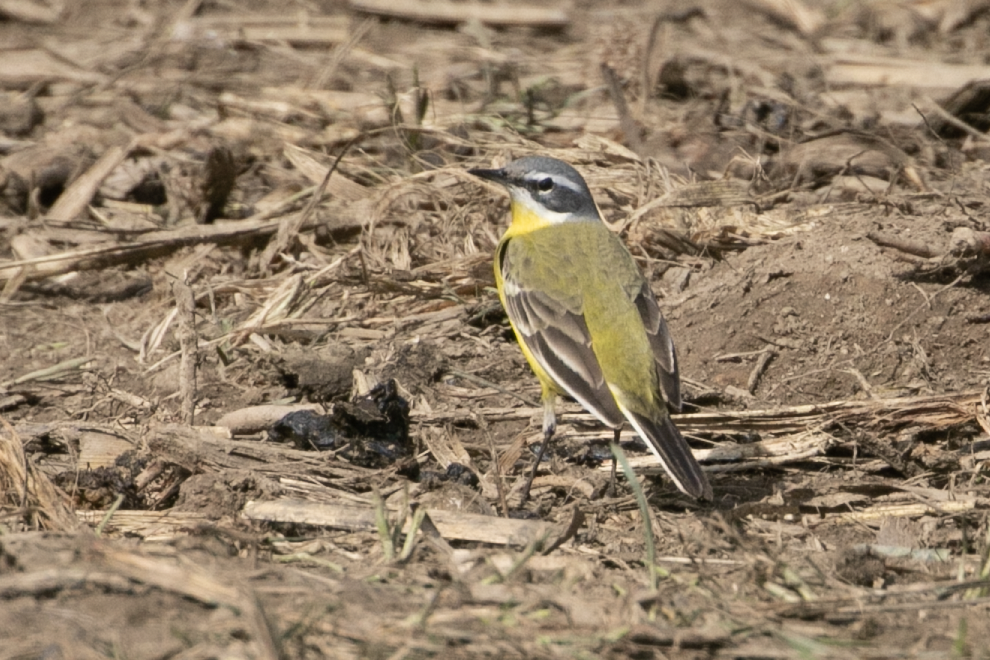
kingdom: Animalia
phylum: Chordata
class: Aves
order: Passeriformes
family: Motacillidae
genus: Motacilla
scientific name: Motacilla flava
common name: Western yellow wagtail
